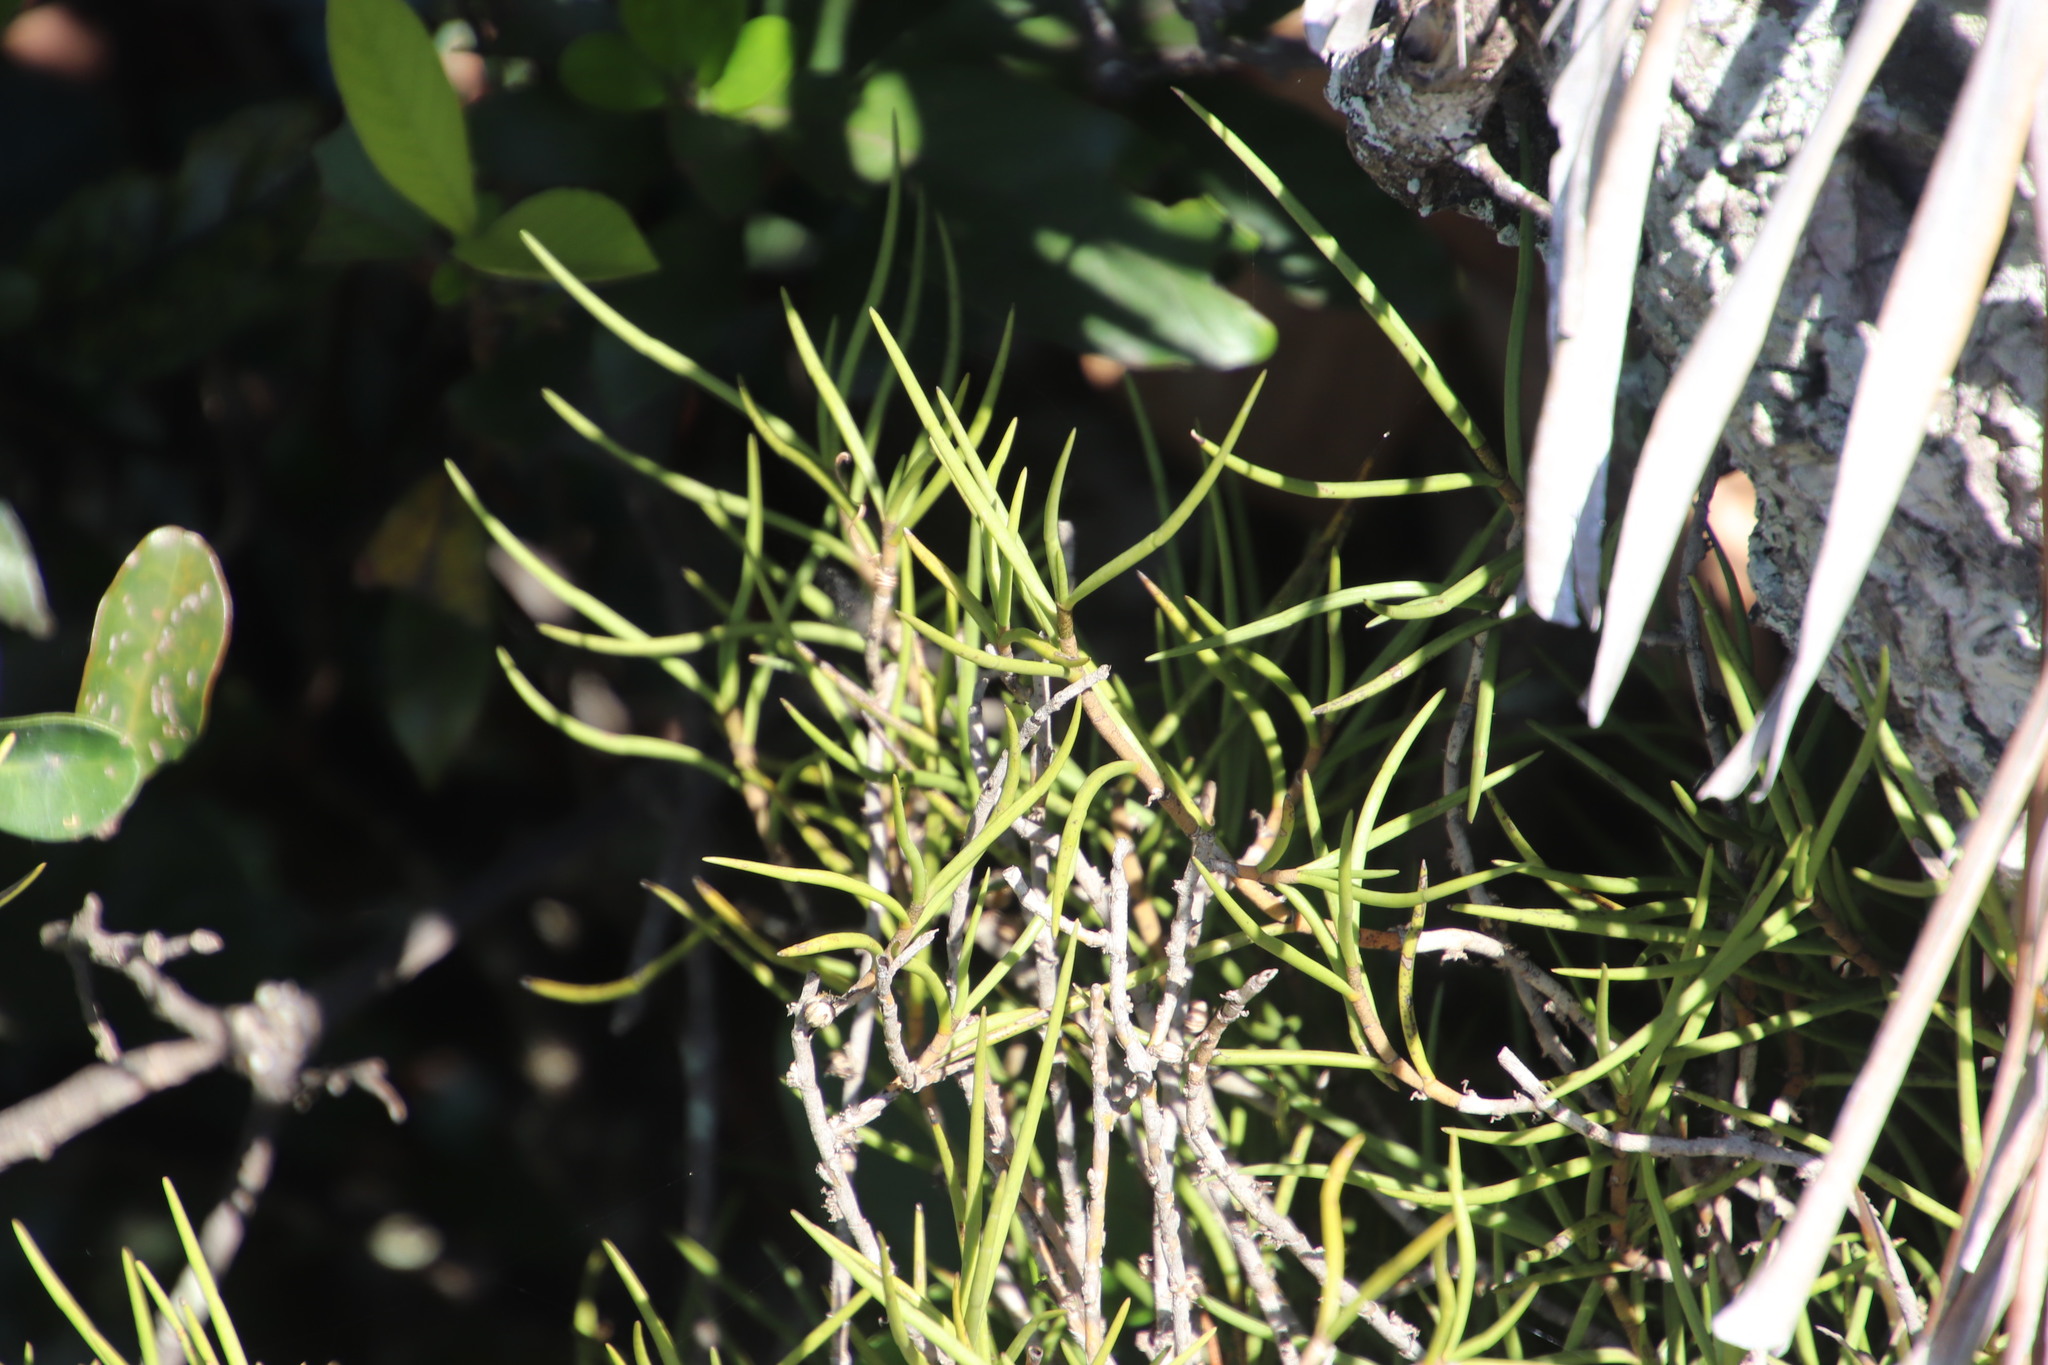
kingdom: Plantae
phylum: Tracheophyta
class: Liliopsida
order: Asparagales
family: Orchidaceae
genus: Tridactyle
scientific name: Tridactyle tridentata
